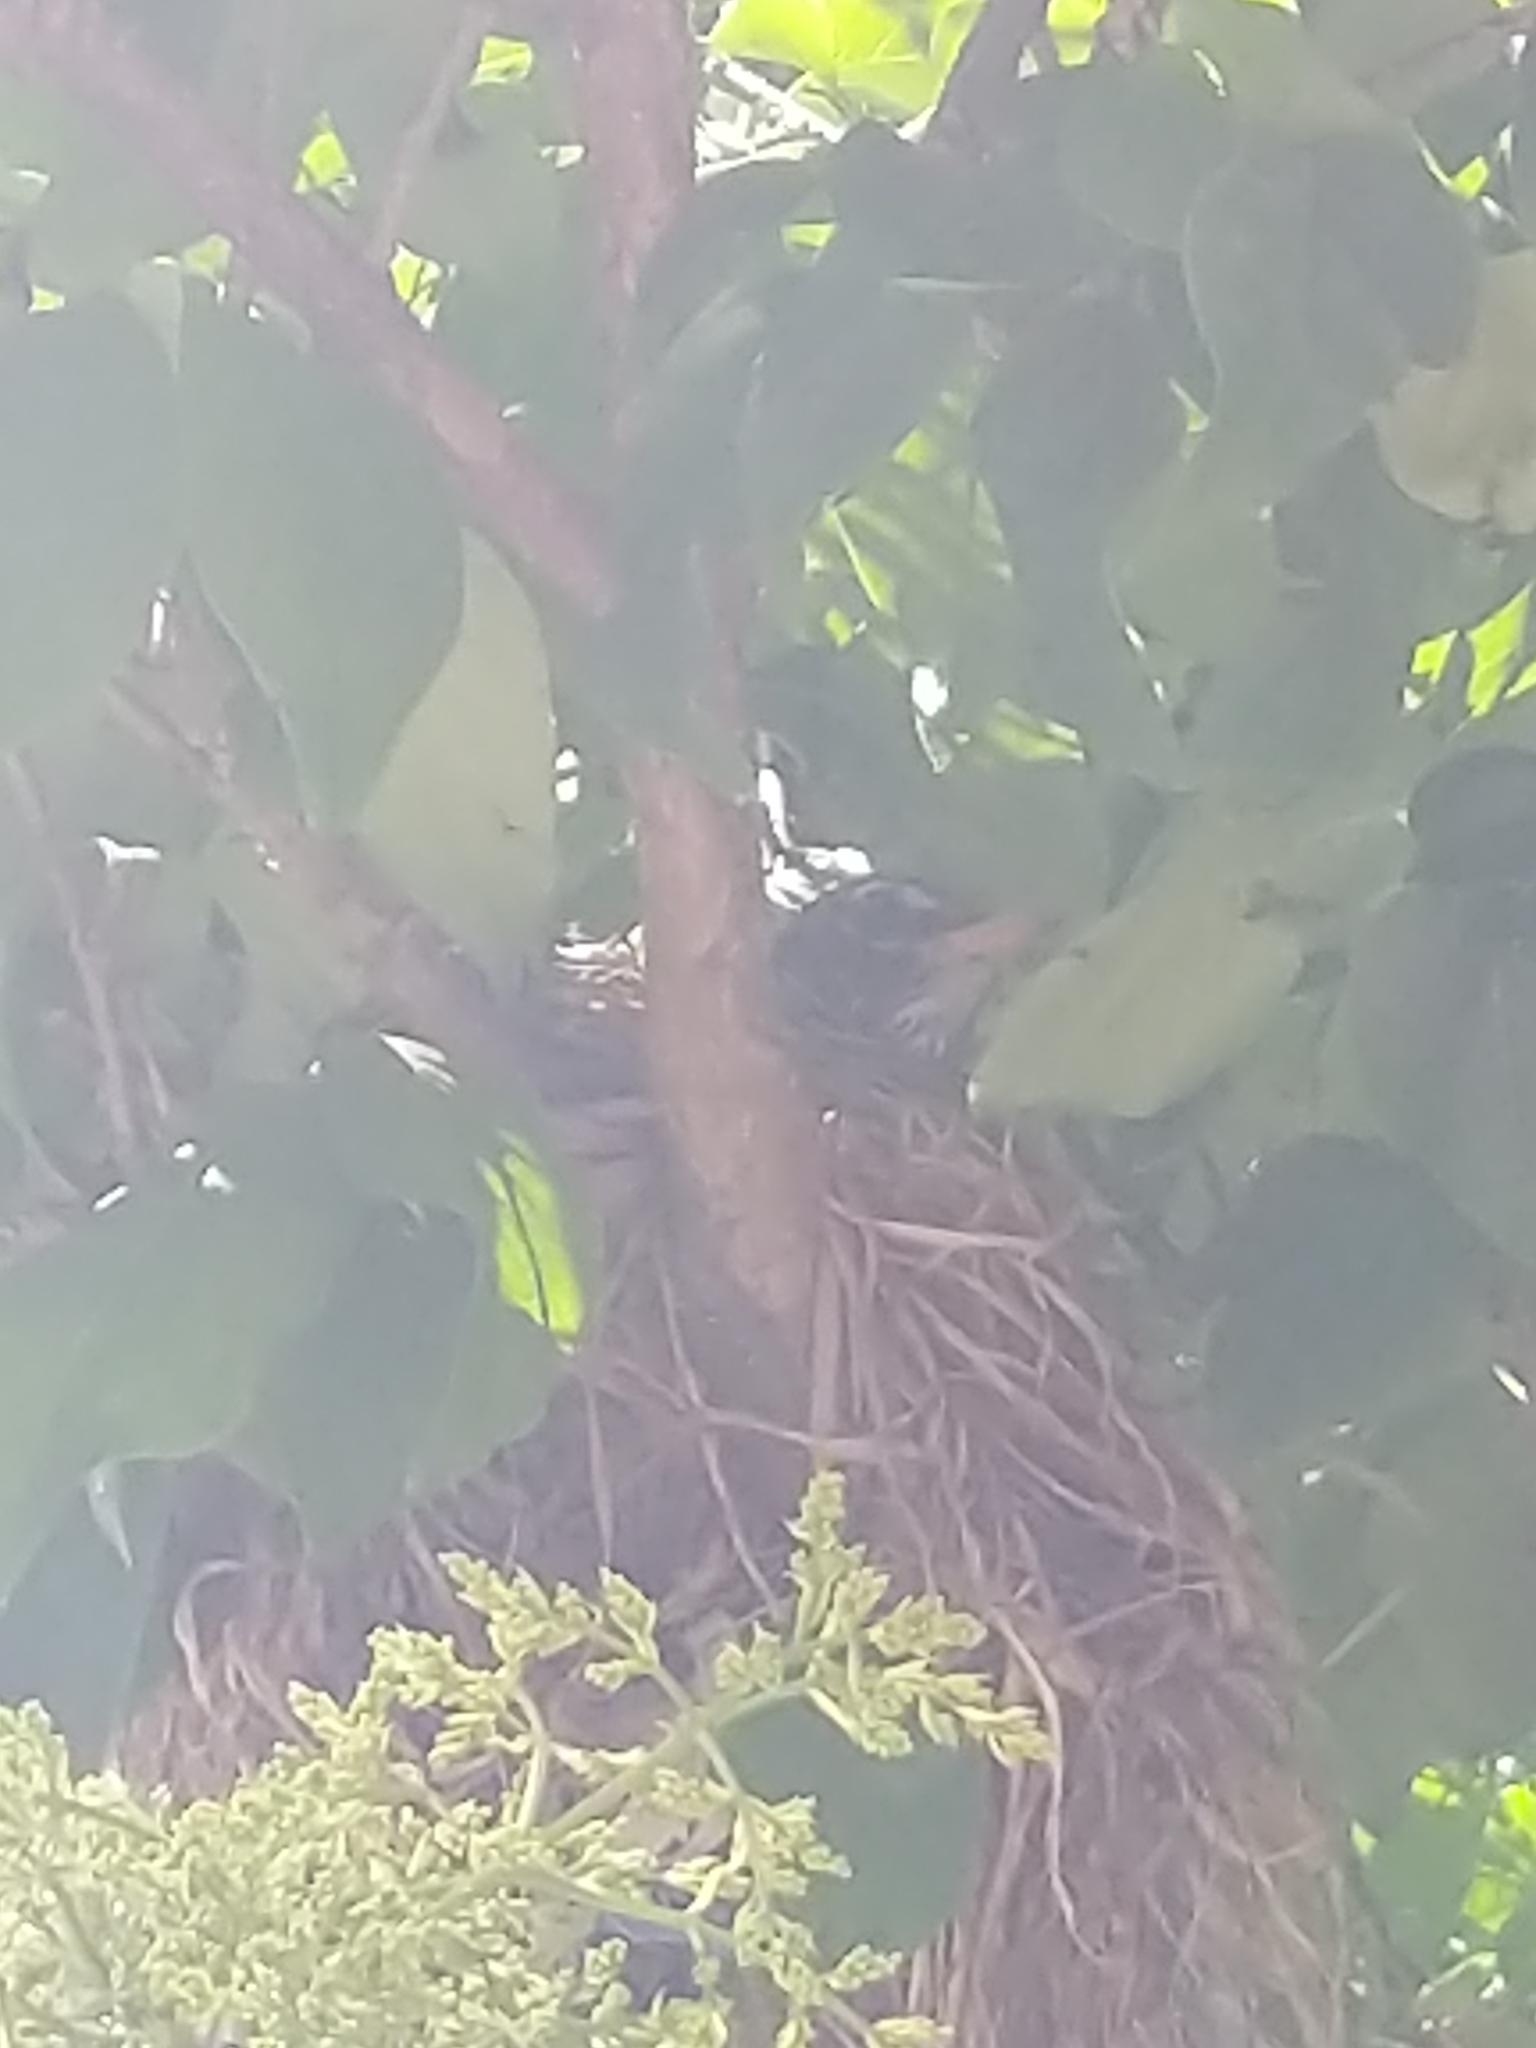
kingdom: Animalia
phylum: Chordata
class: Aves
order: Passeriformes
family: Turdidae
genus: Turdus
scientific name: Turdus migratorius
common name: American robin
